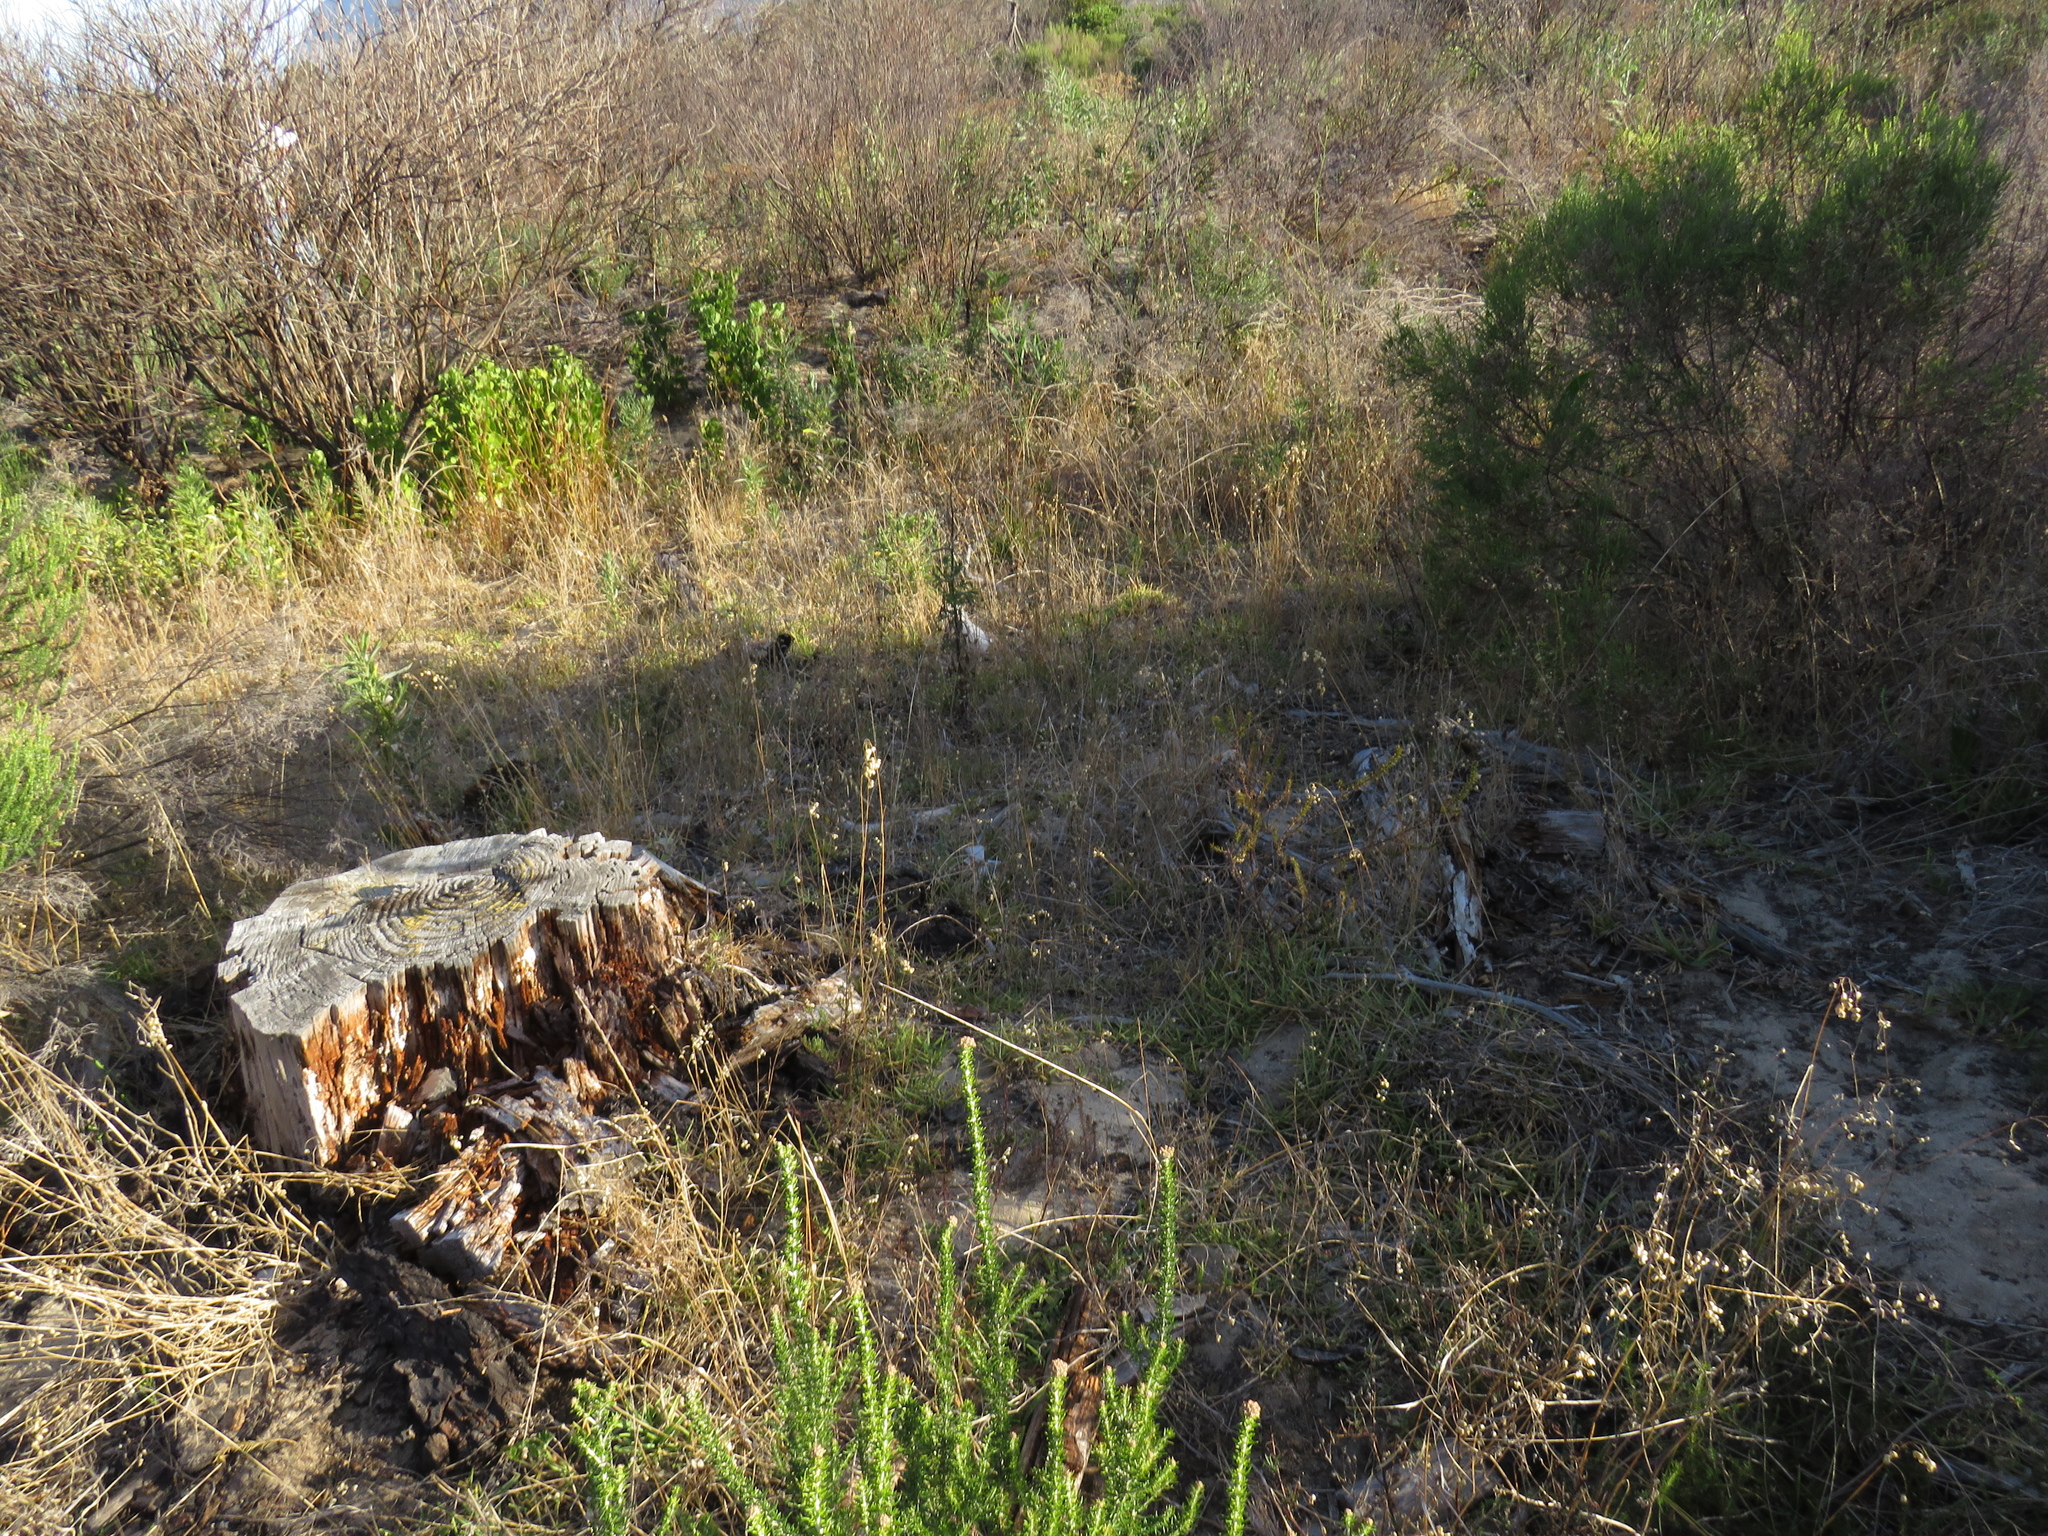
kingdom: Plantae
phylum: Tracheophyta
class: Liliopsida
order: Poales
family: Poaceae
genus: Stenotaphrum
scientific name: Stenotaphrum secundatum
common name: St. augustine grass
